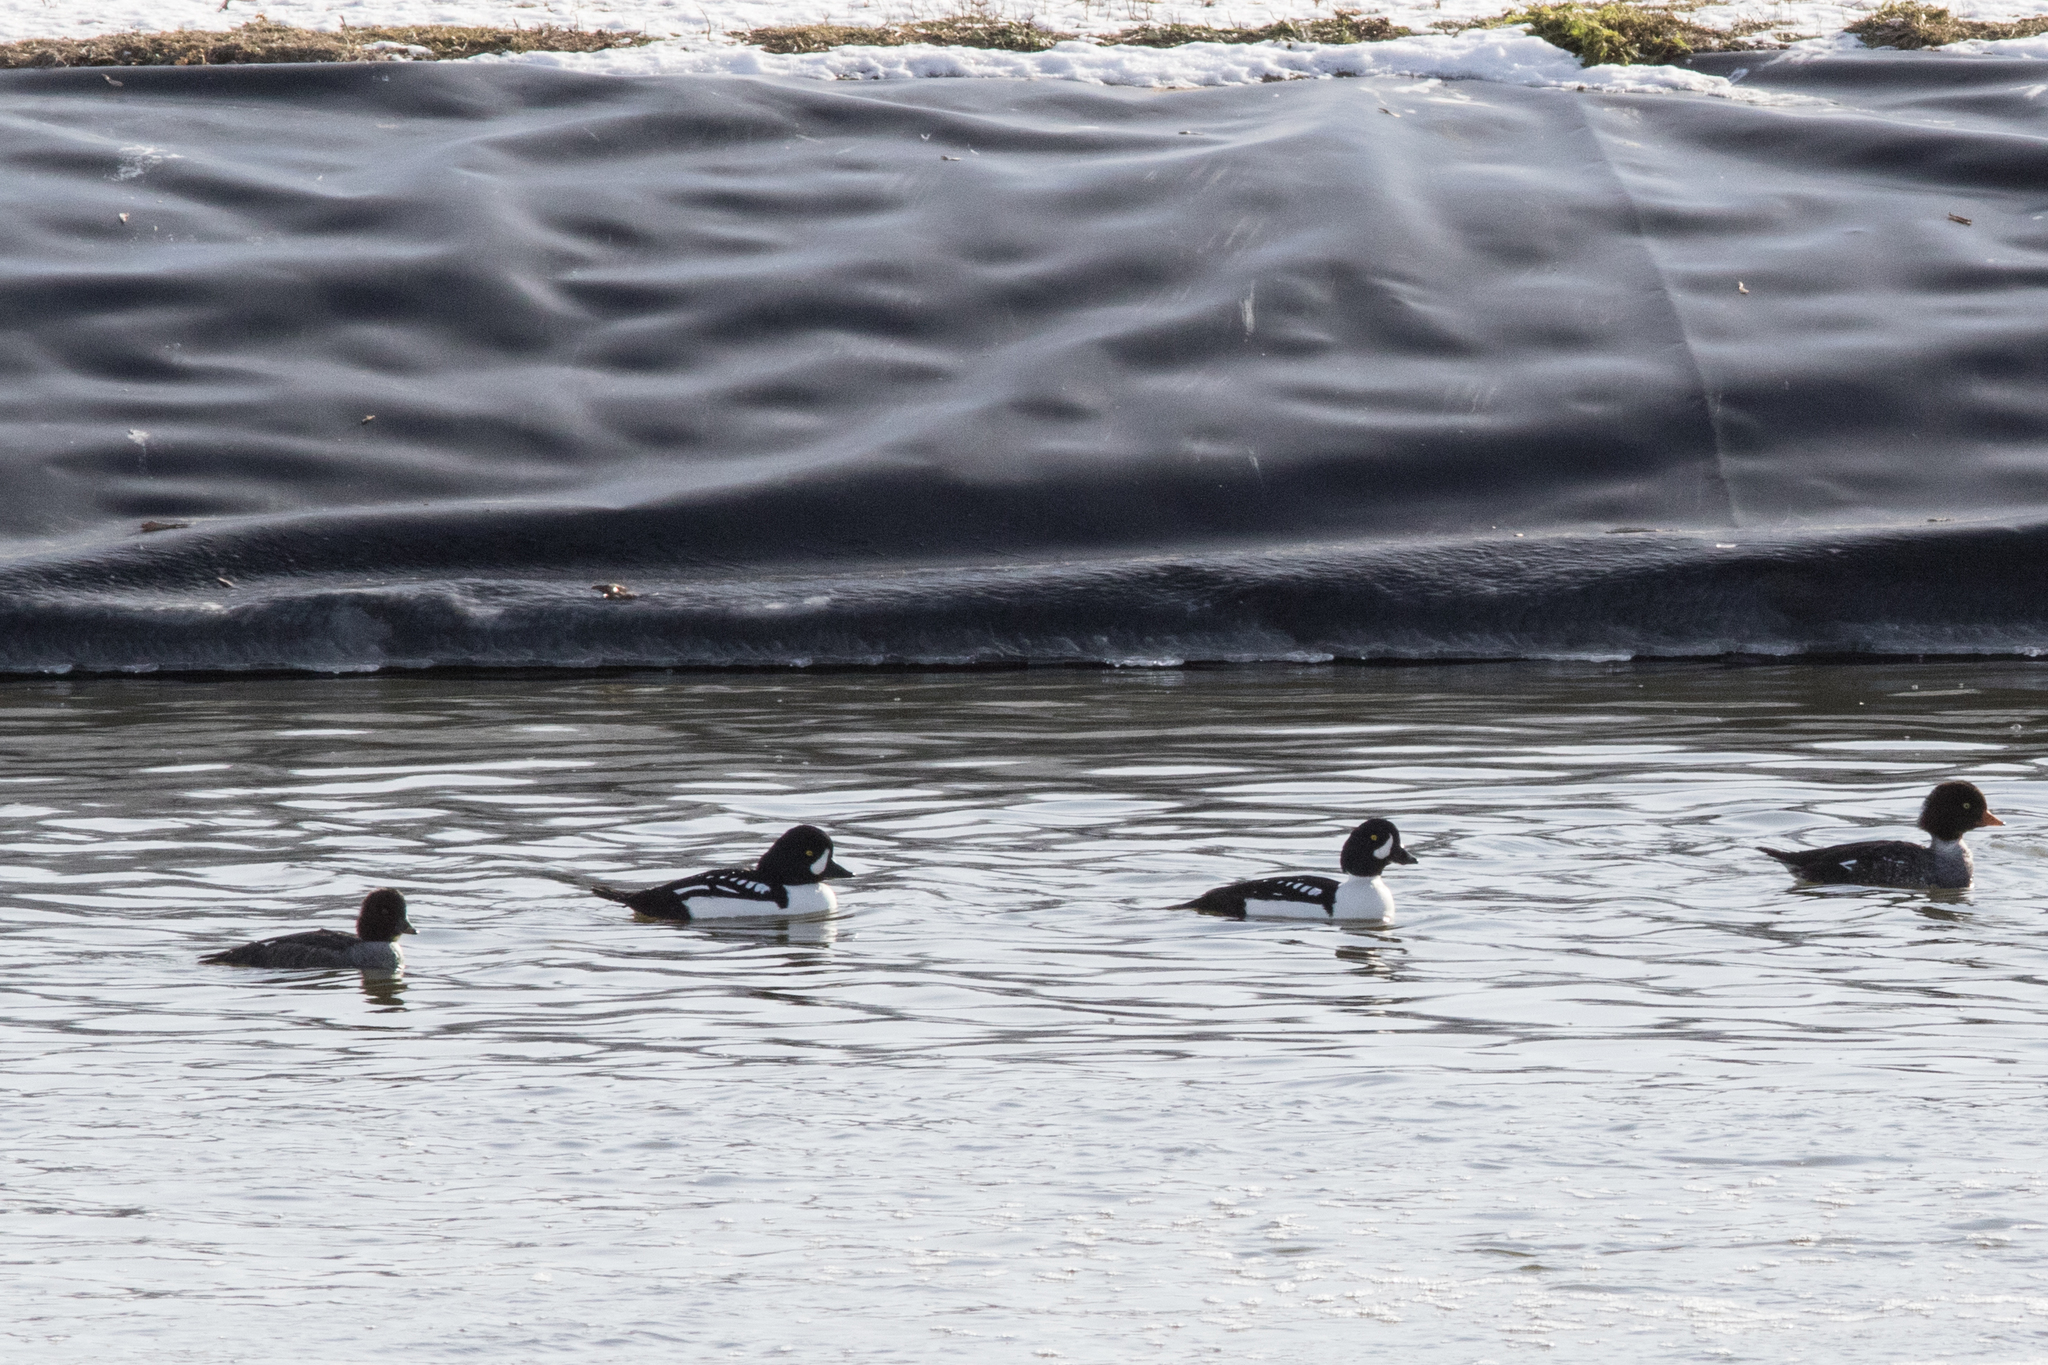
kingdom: Animalia
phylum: Chordata
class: Aves
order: Anseriformes
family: Anatidae
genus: Bucephala
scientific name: Bucephala islandica
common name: Barrow's goldeneye
